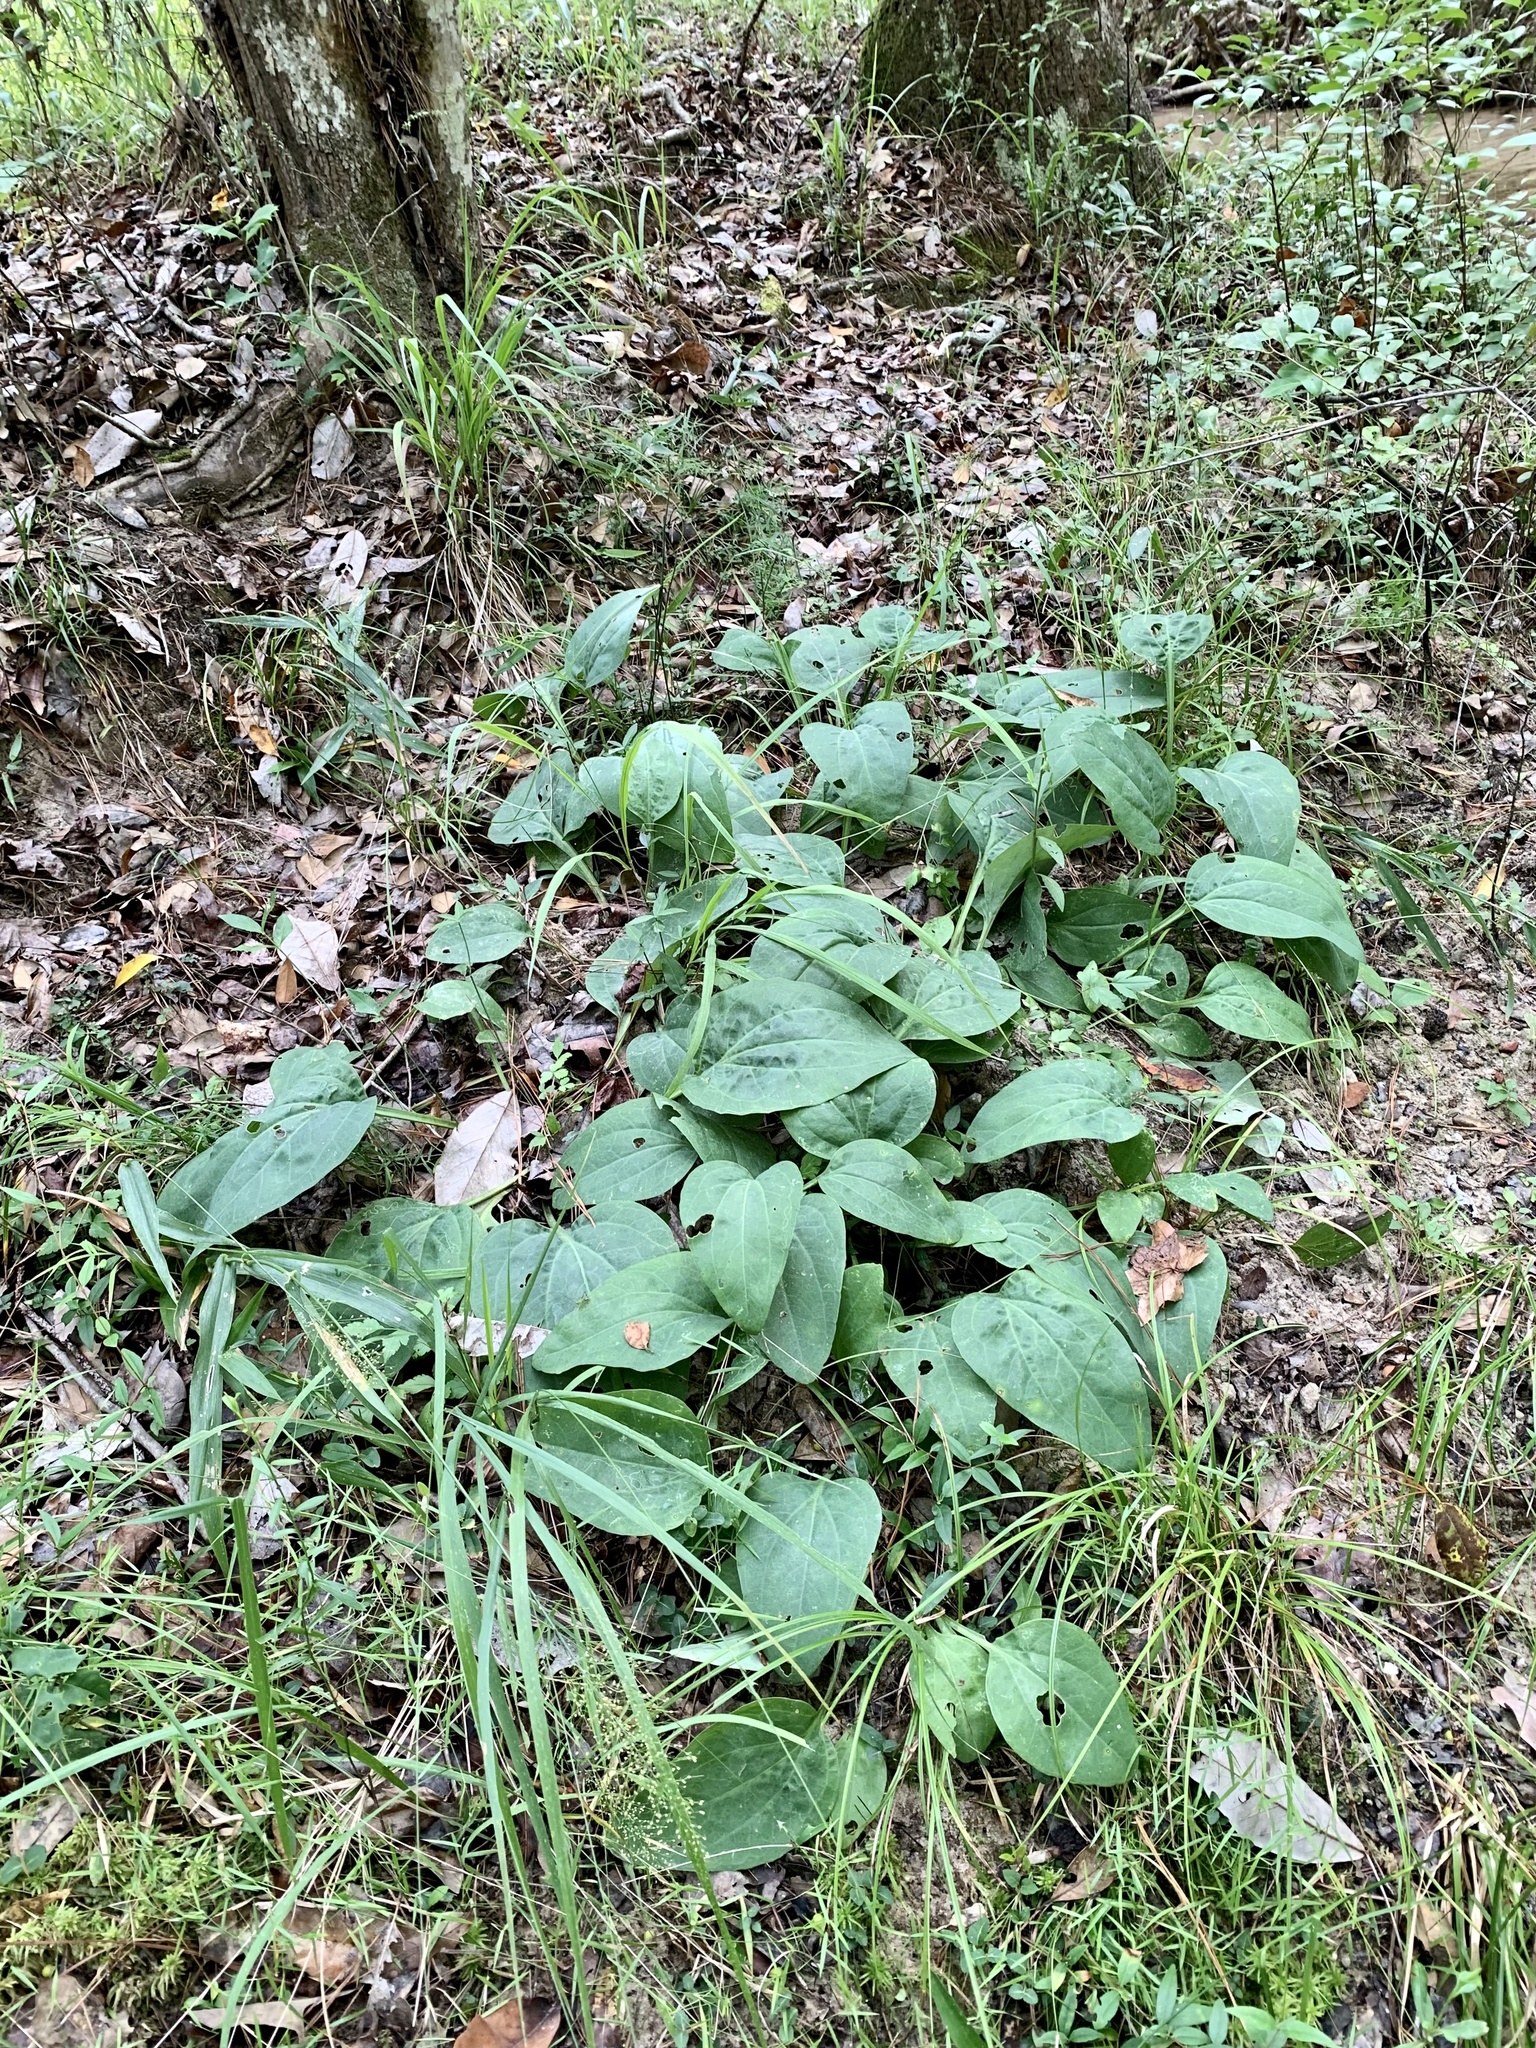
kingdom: Plantae
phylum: Tracheophyta
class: Magnoliopsida
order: Asterales
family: Asteraceae
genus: Arnoglossum
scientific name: Arnoglossum ovatum
